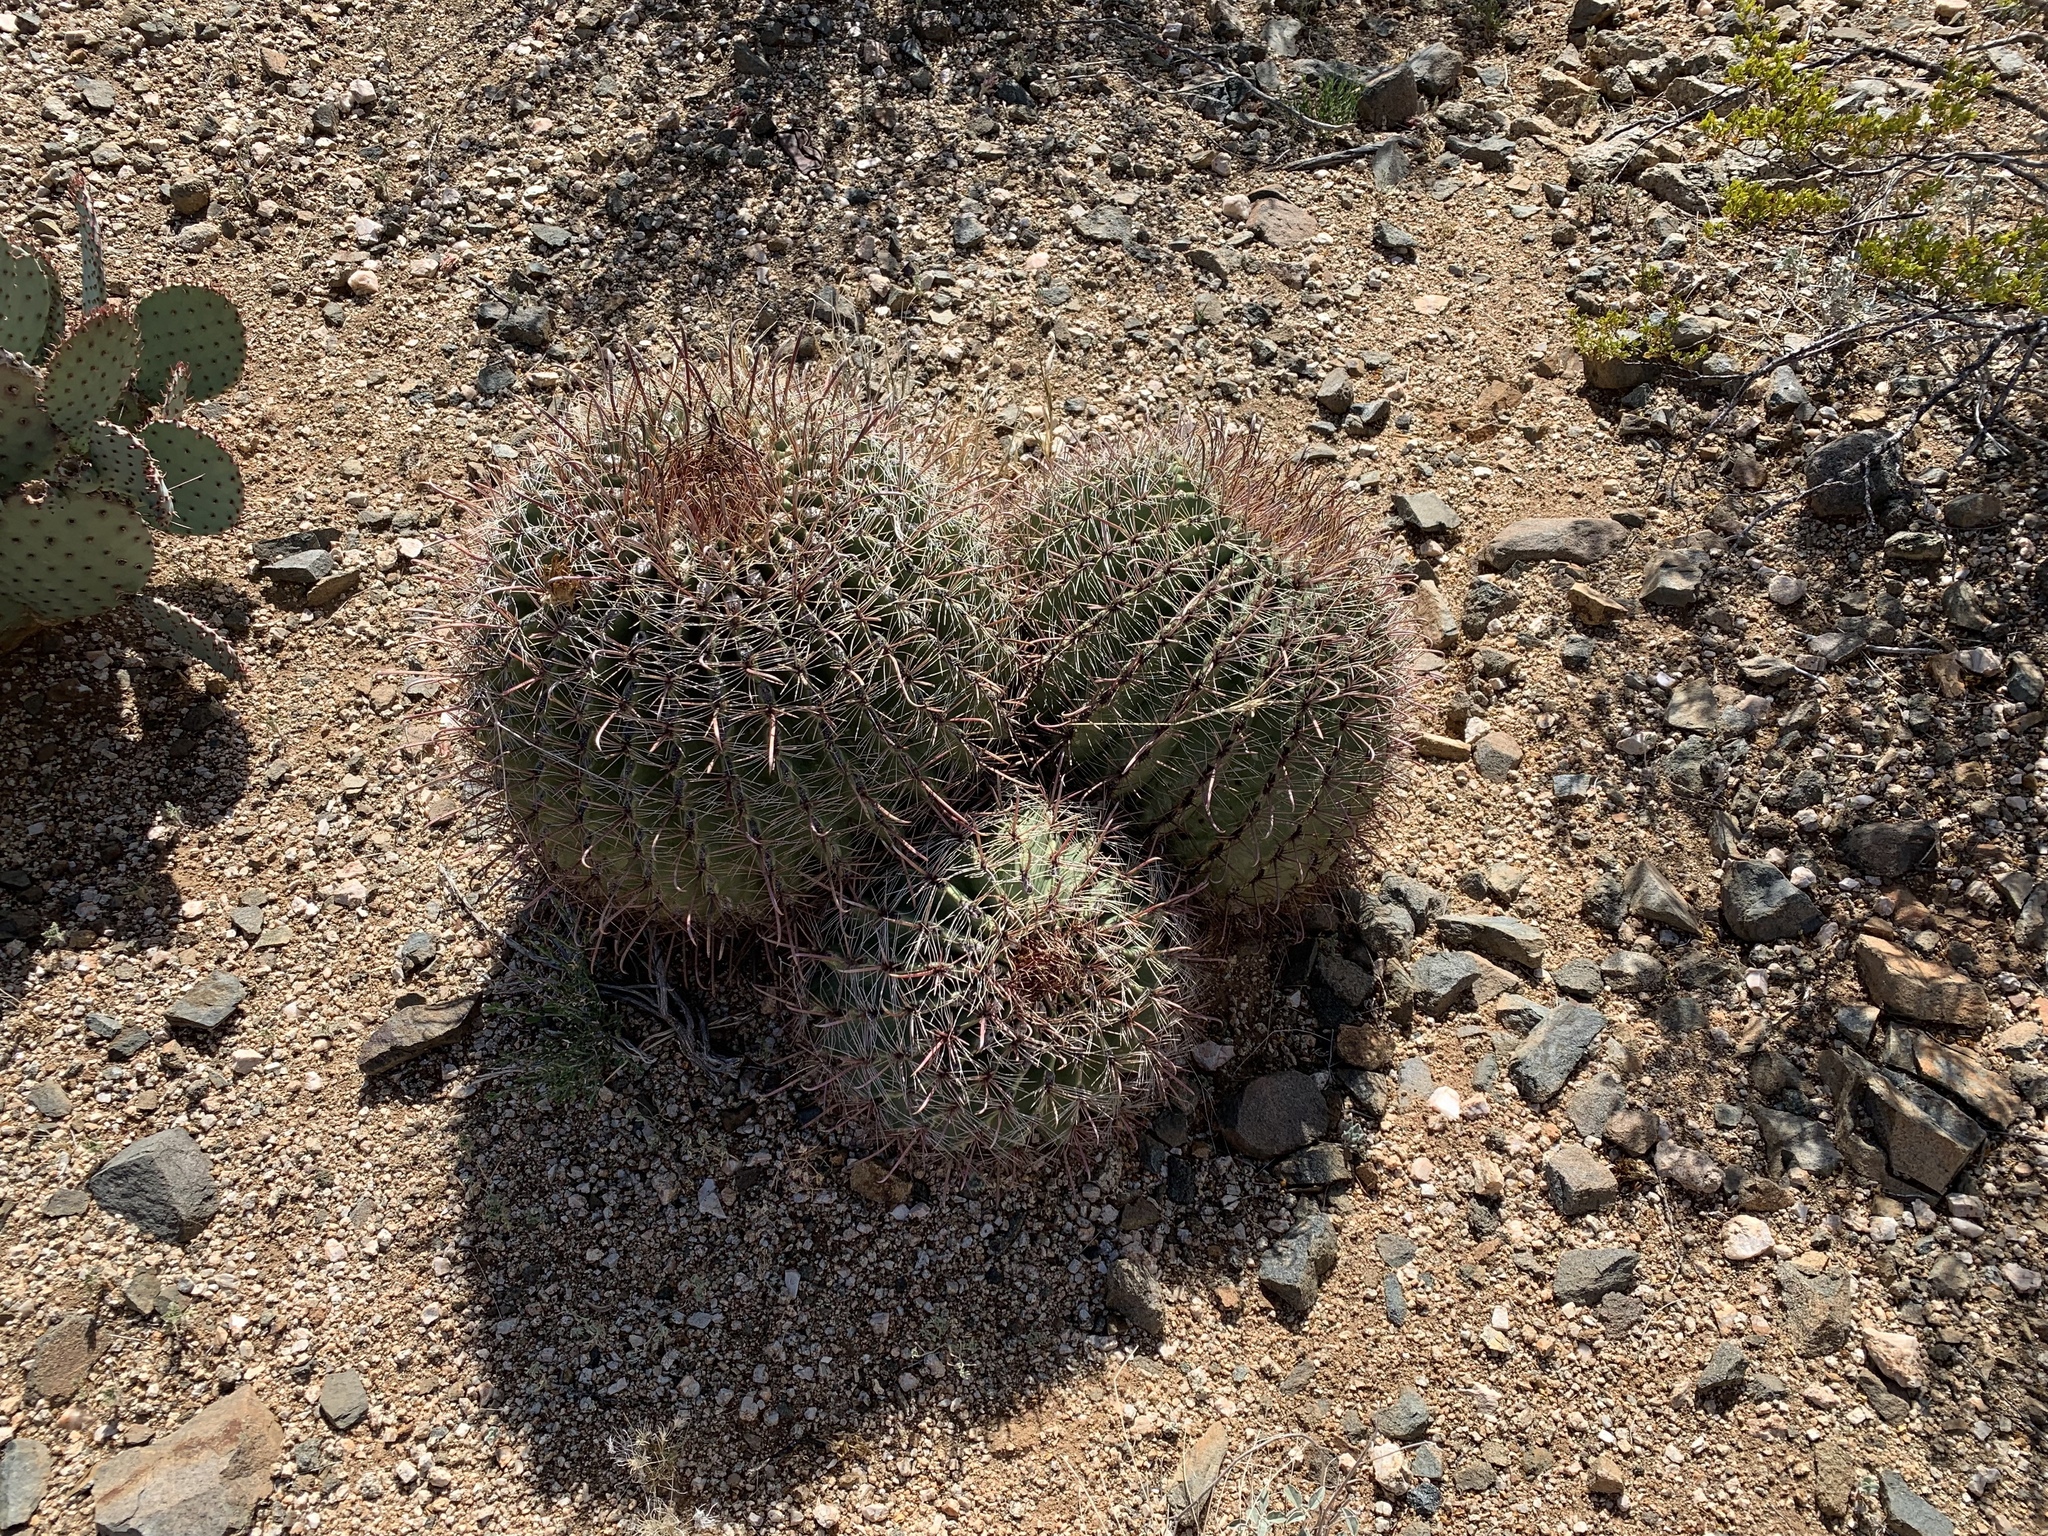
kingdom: Plantae
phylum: Tracheophyta
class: Magnoliopsida
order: Caryophyllales
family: Cactaceae
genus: Ferocactus
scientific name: Ferocactus wislizeni
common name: Candy barrel cactus
